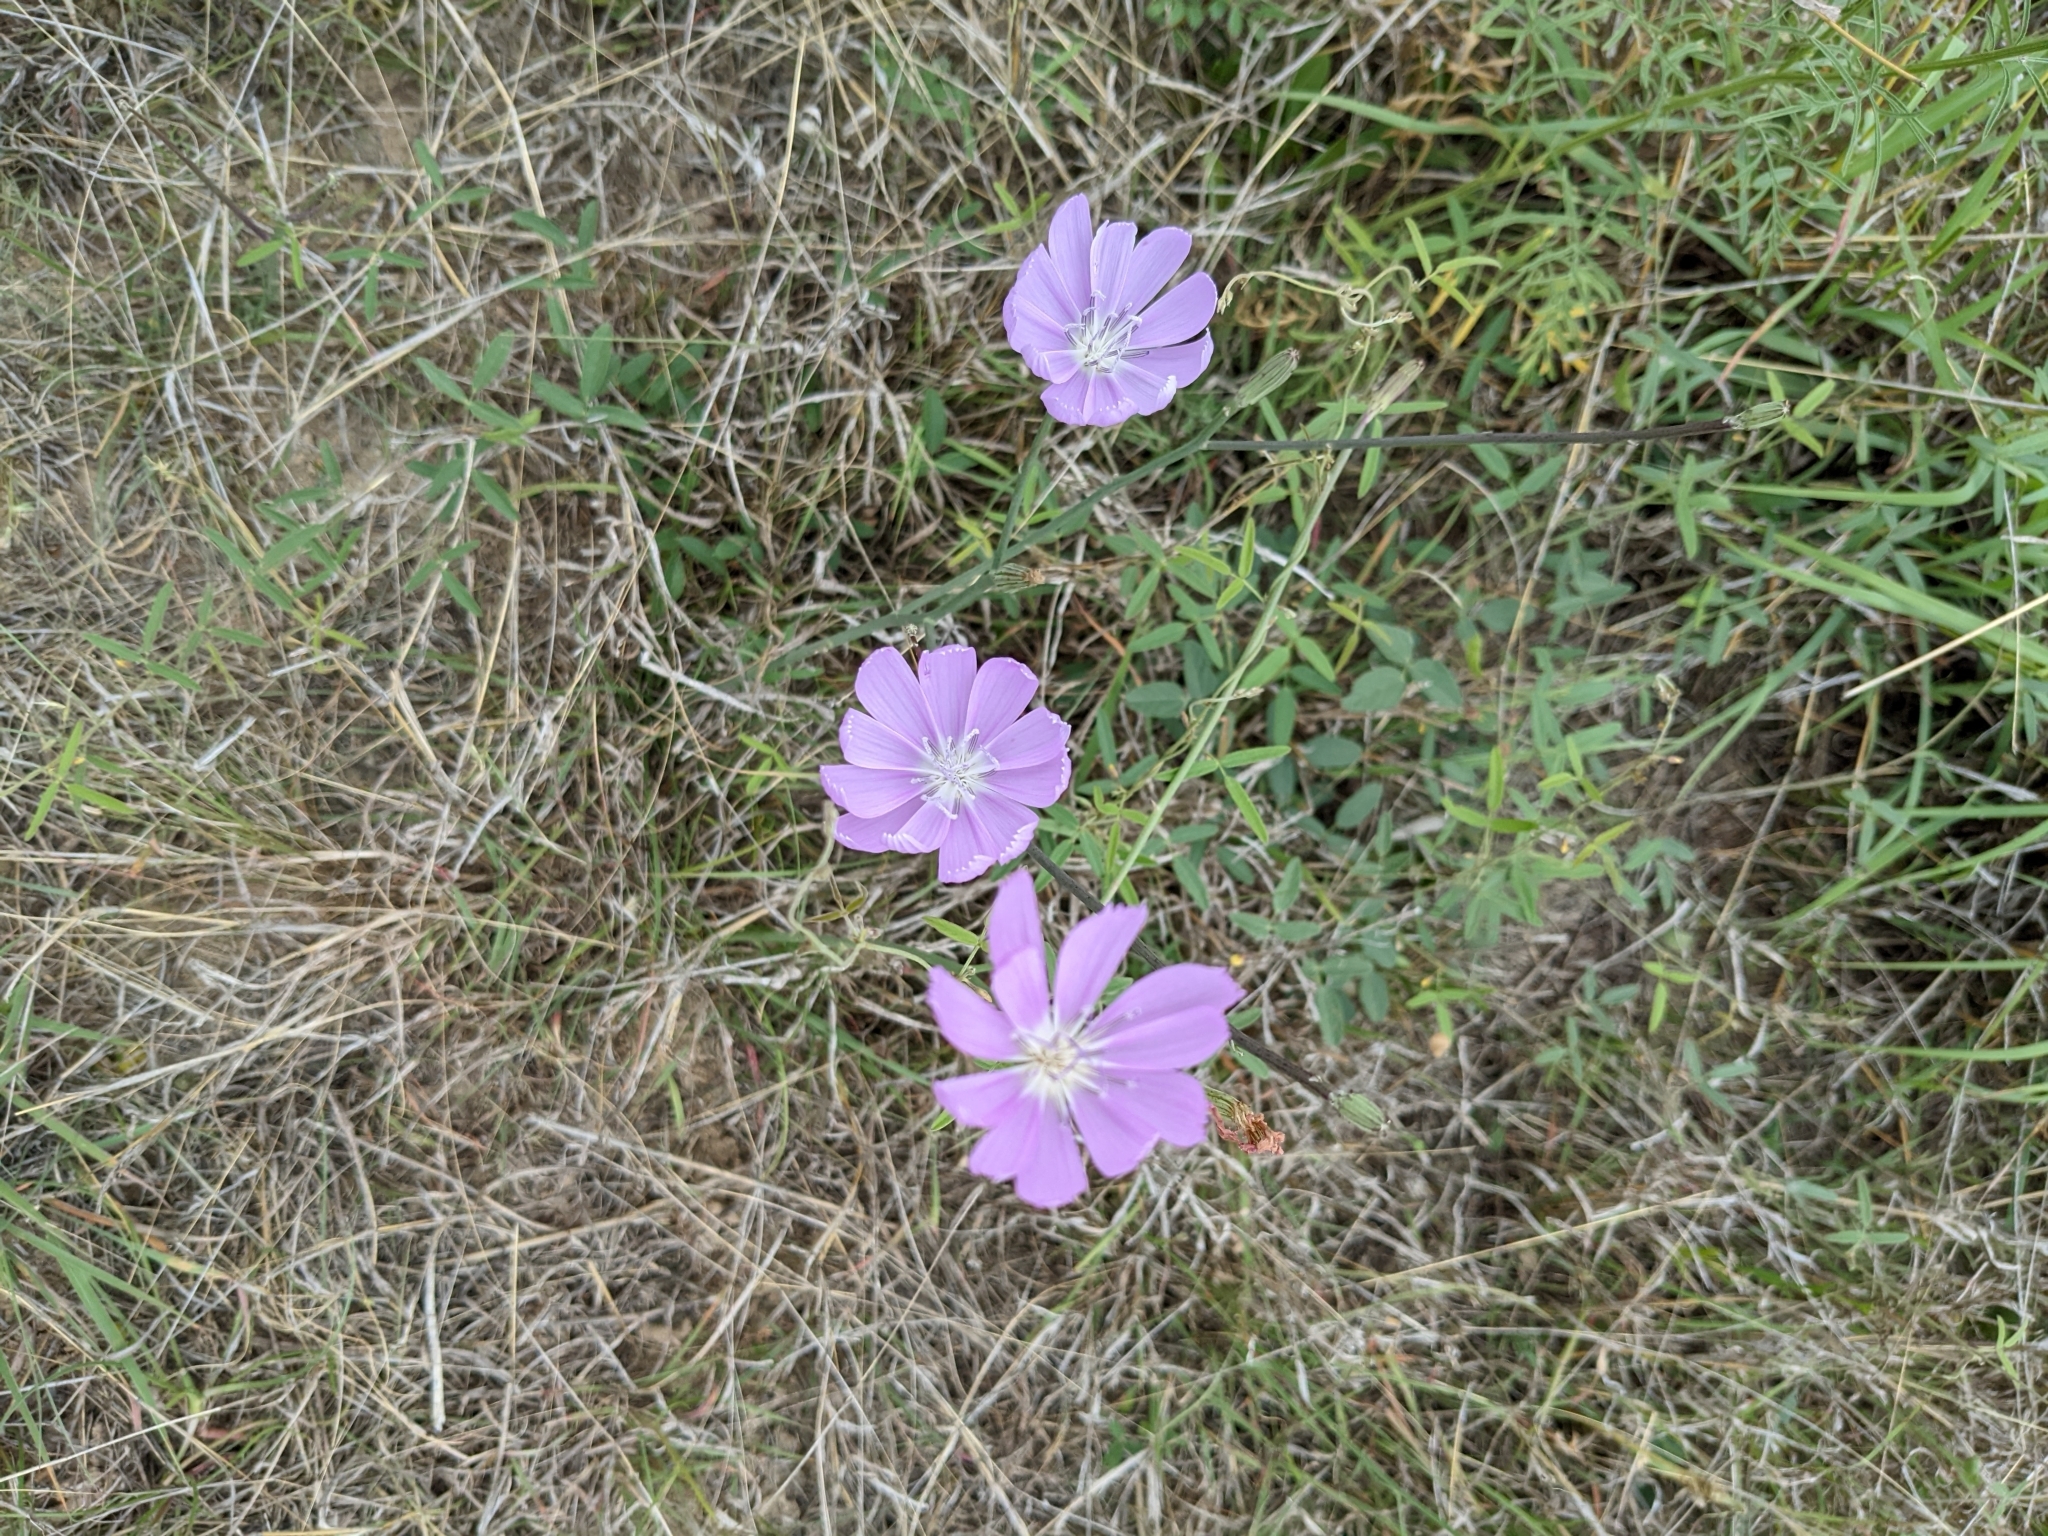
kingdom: Plantae
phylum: Tracheophyta
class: Magnoliopsida
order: Asterales
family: Asteraceae
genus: Lygodesmia
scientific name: Lygodesmia texana
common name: Texas skeleton-plant
